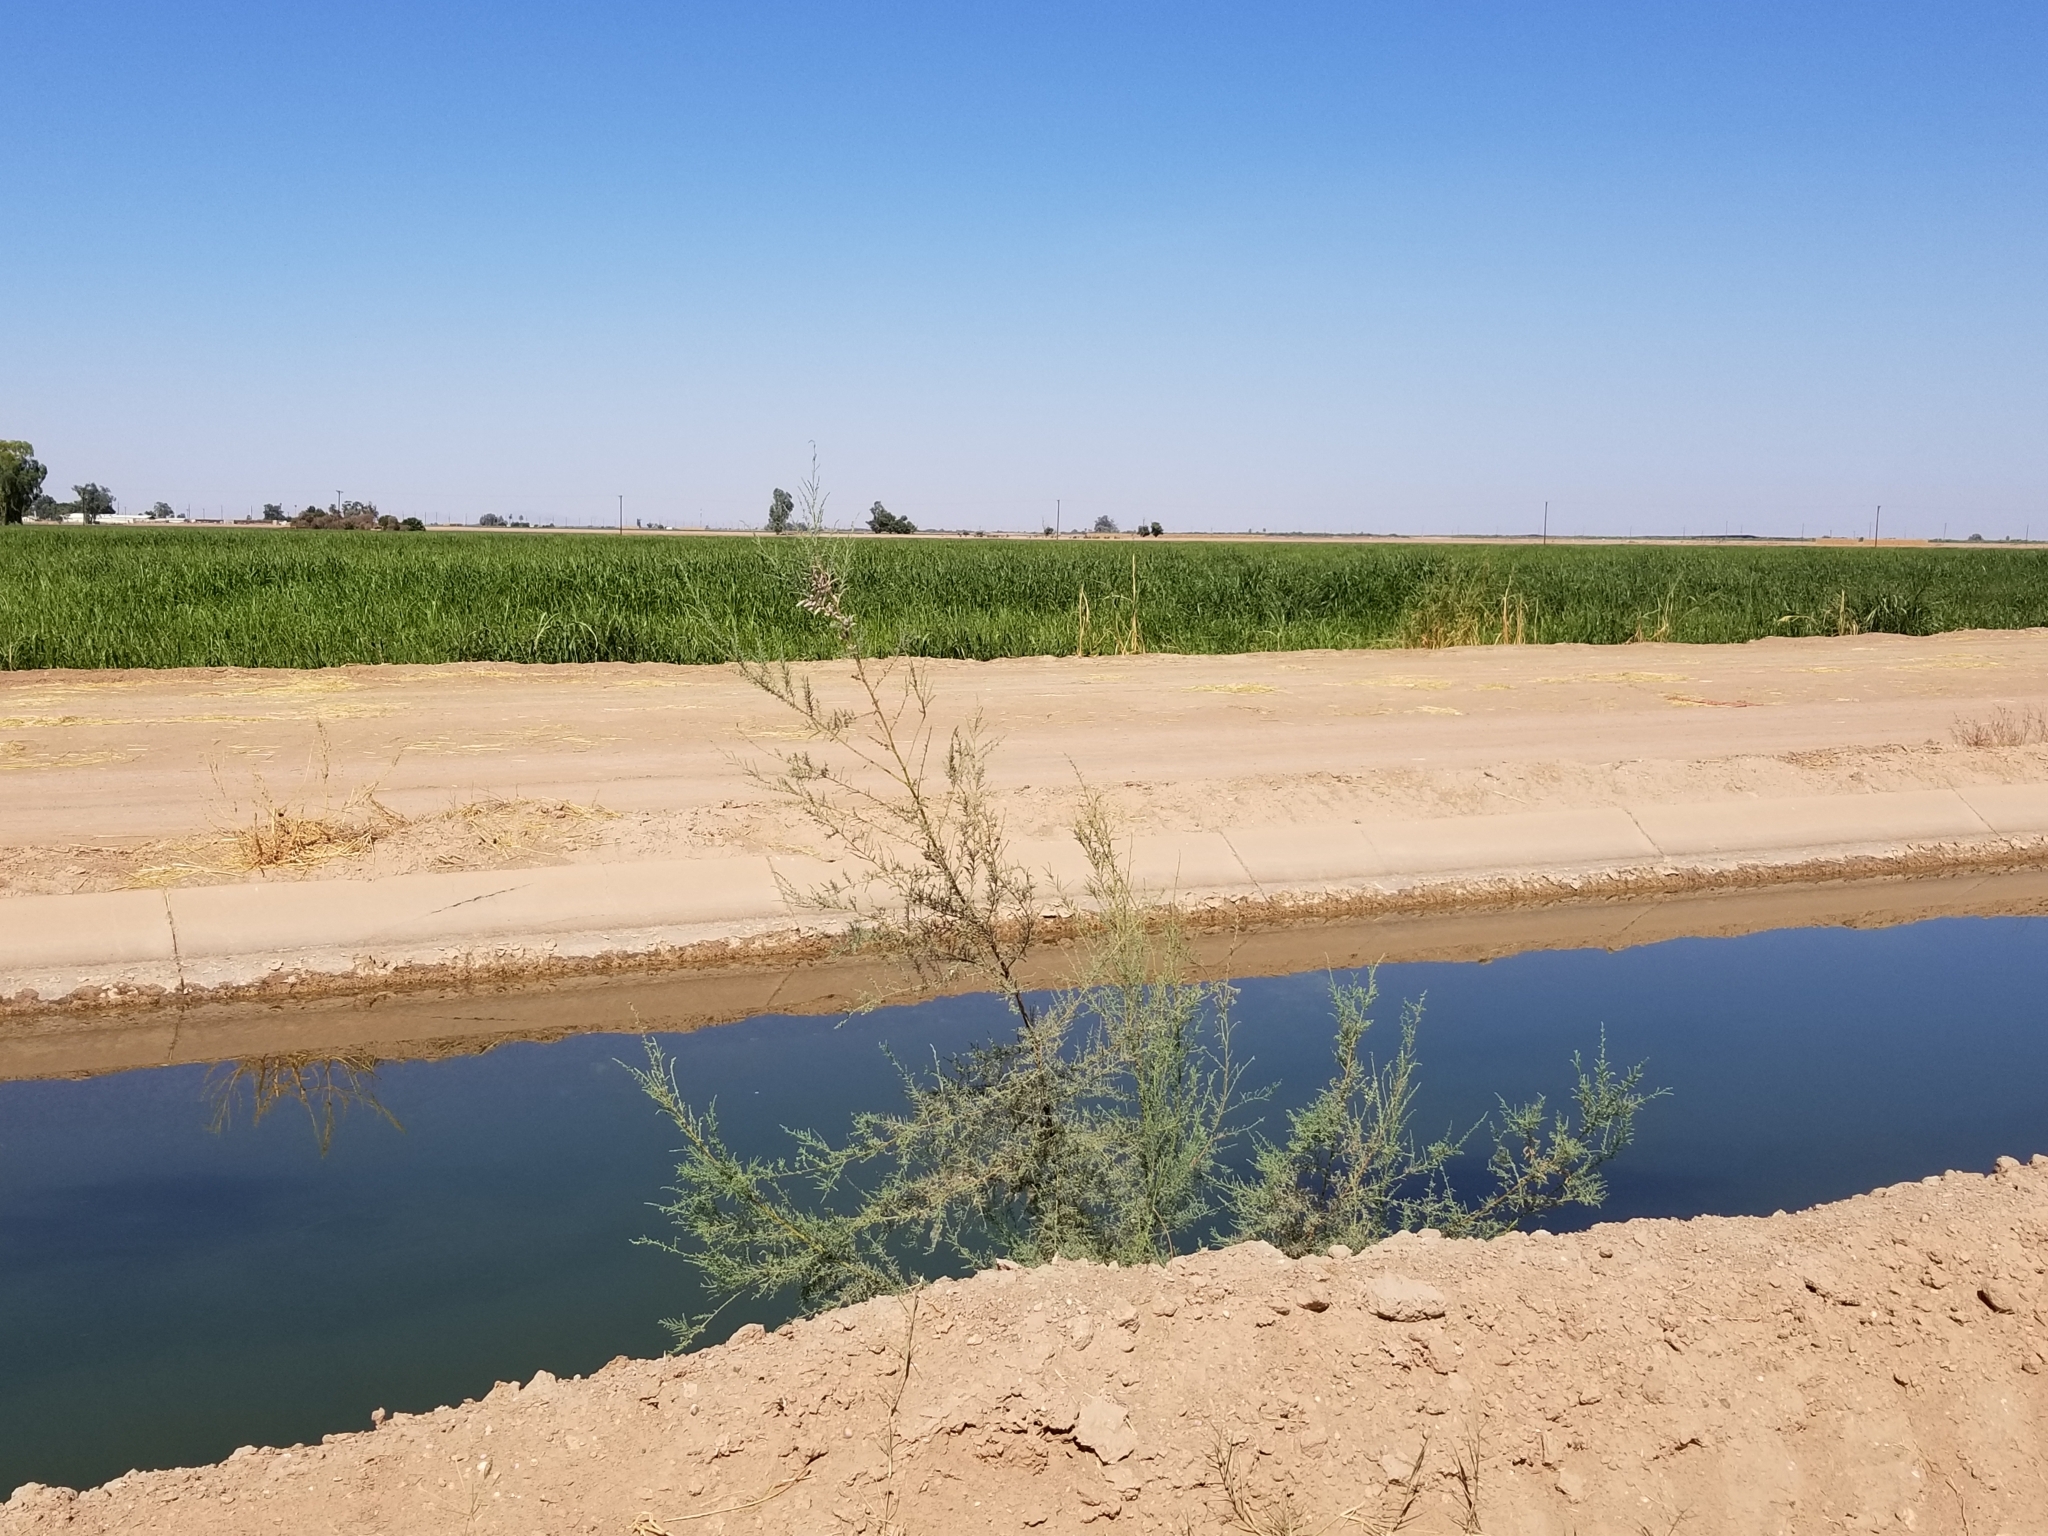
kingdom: Plantae
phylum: Tracheophyta
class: Magnoliopsida
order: Caryophyllales
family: Tamaricaceae
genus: Tamarix
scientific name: Tamarix ramosissima
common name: Pink tamarisk
